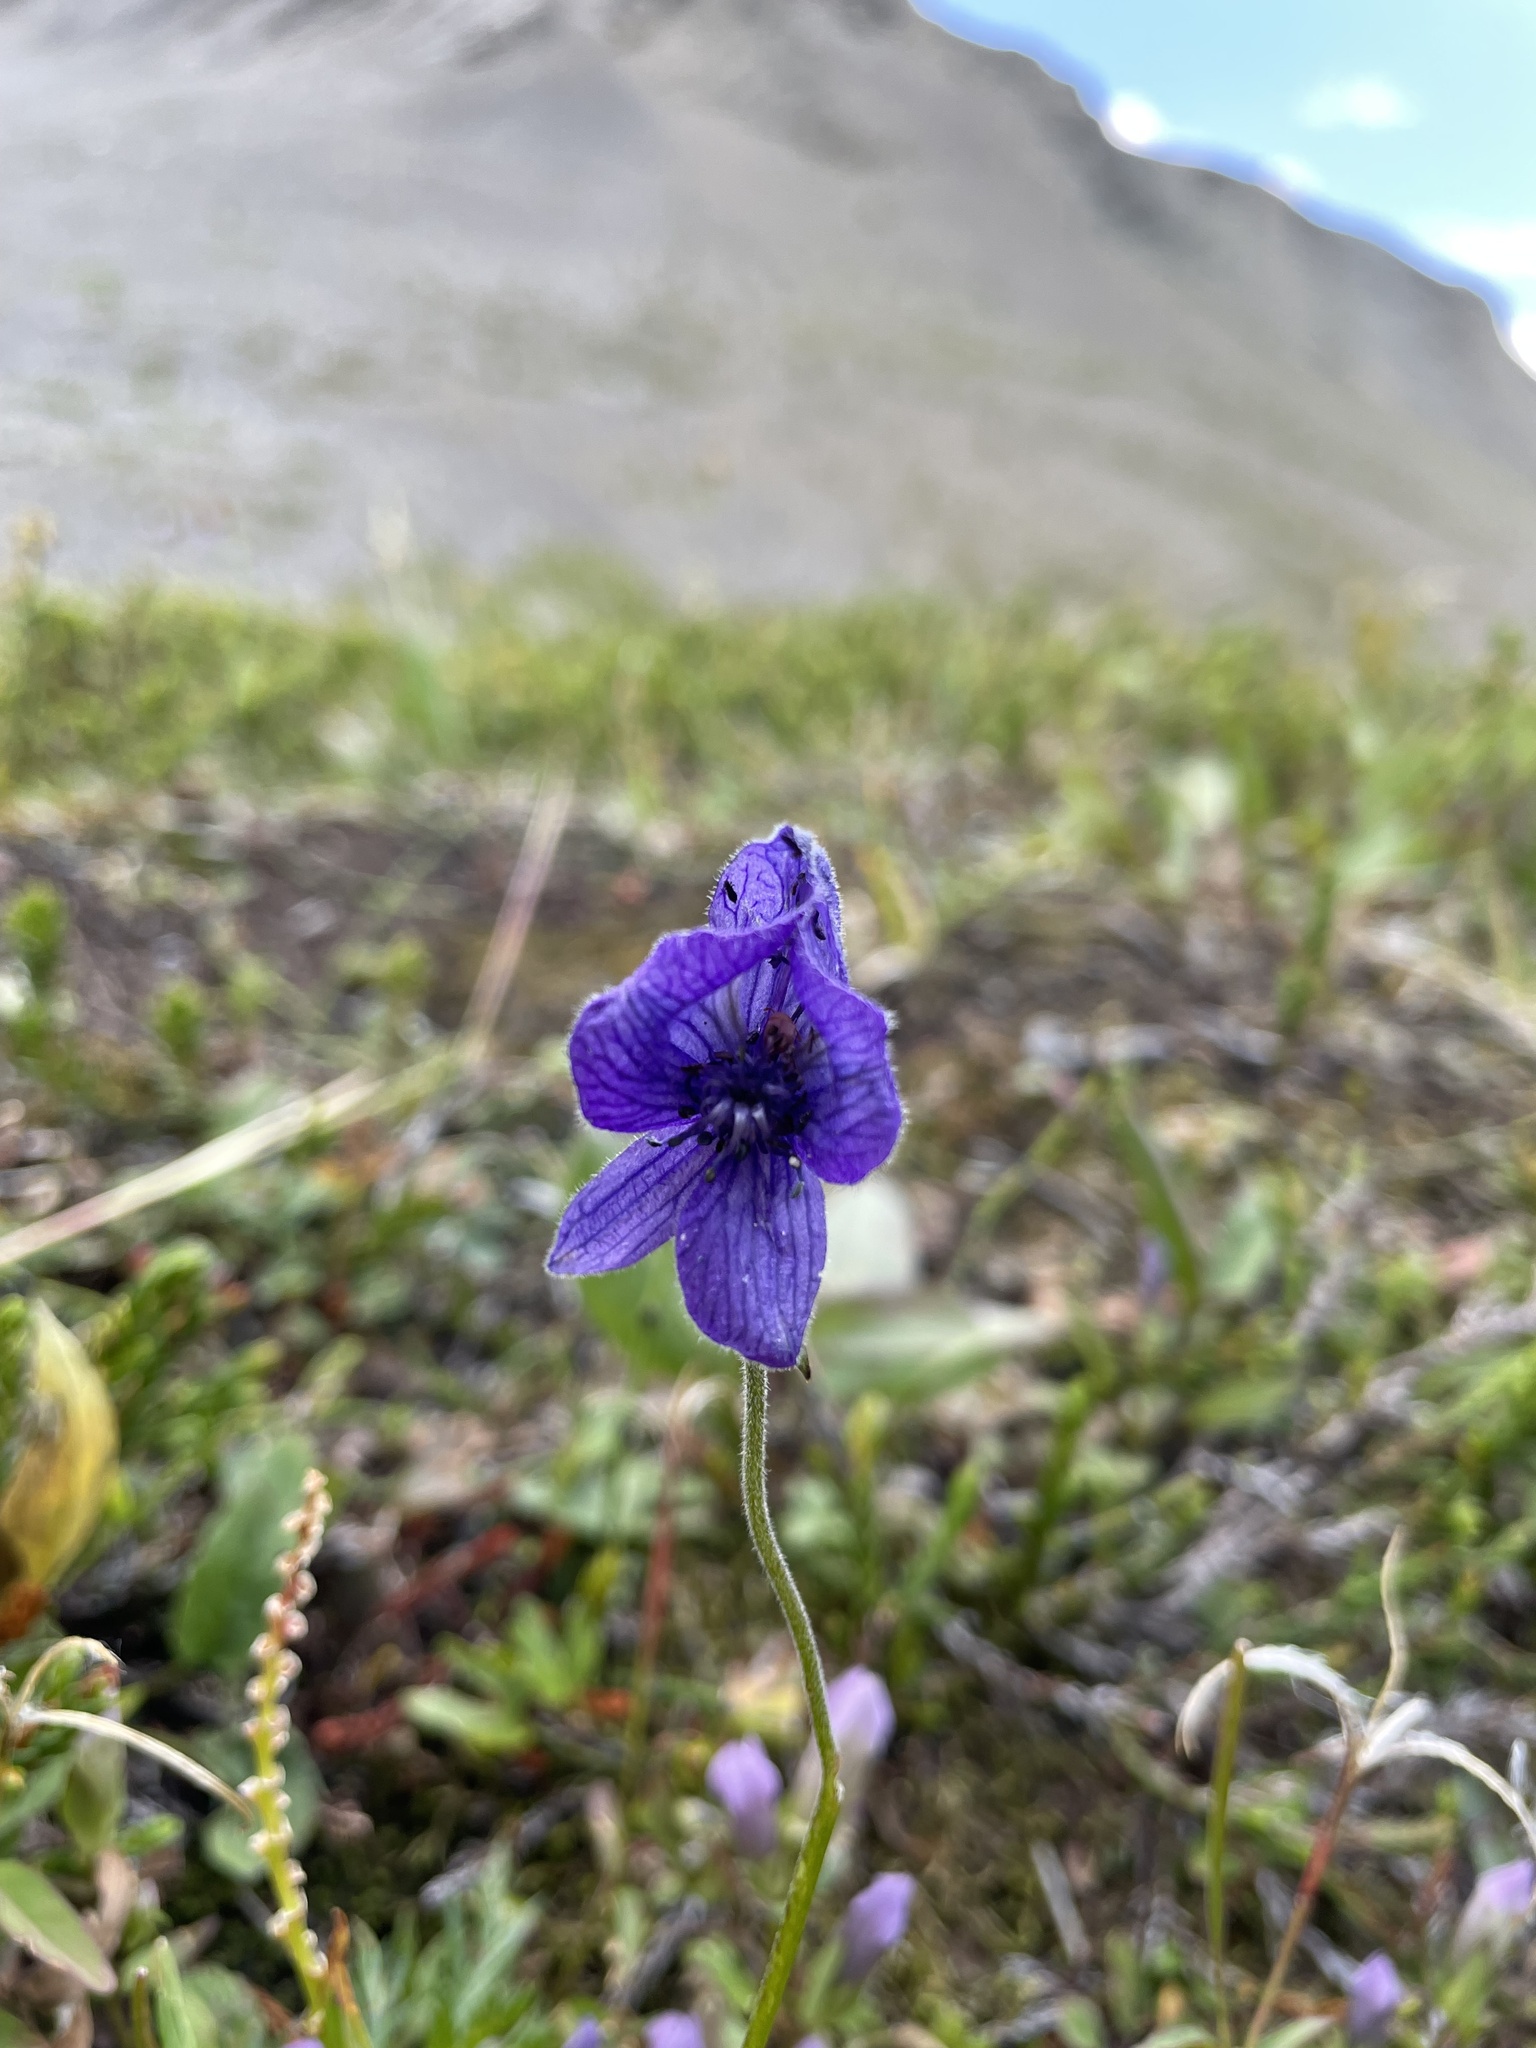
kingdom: Plantae
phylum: Tracheophyta
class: Magnoliopsida
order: Ranunculales
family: Ranunculaceae
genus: Aconitum
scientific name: Aconitum delphiniifolium
